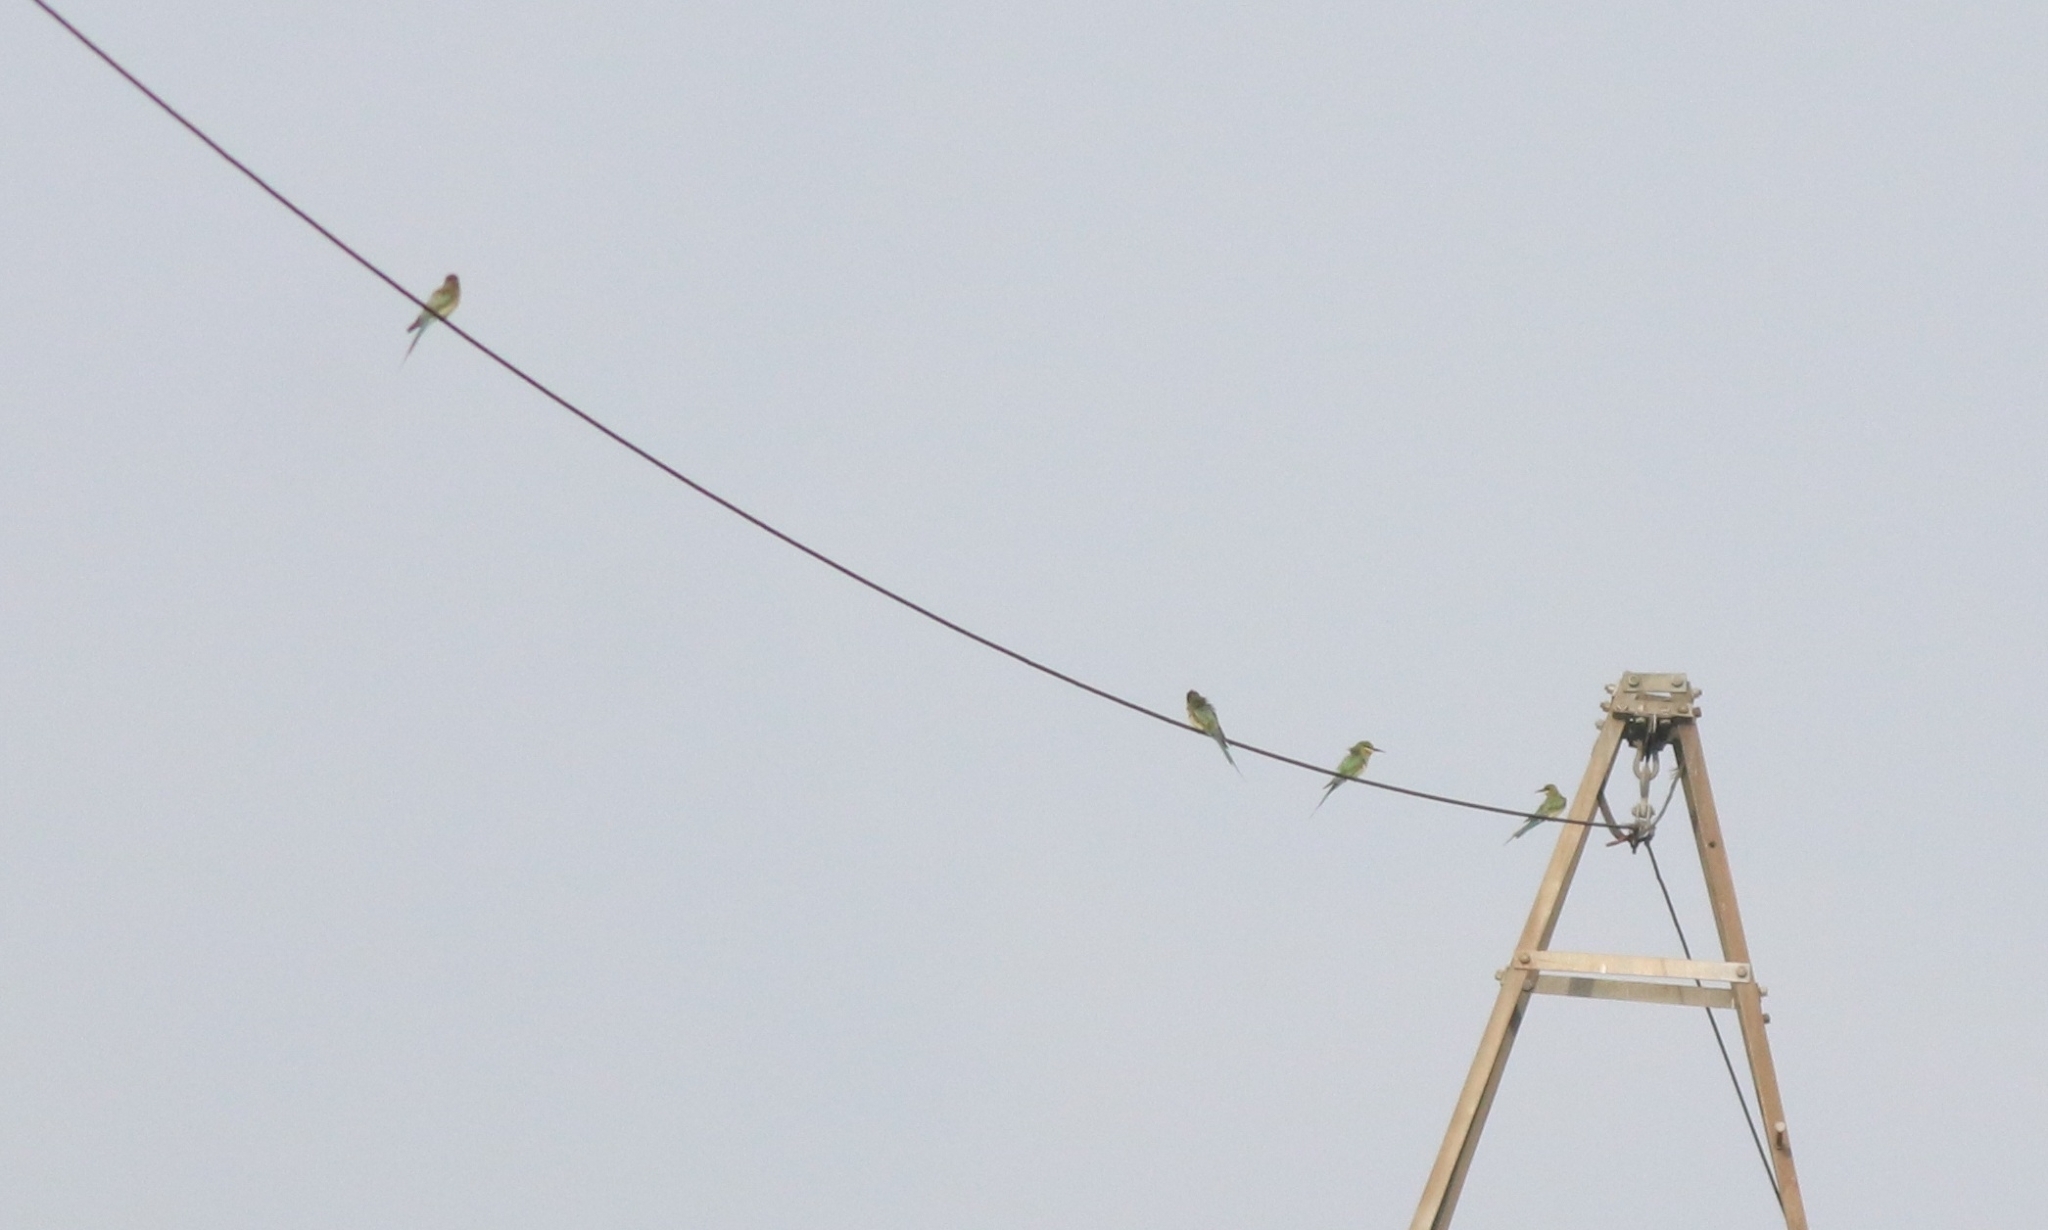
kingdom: Animalia
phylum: Chordata
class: Aves
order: Coraciiformes
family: Meropidae
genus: Merops
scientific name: Merops philippinus
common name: Blue-tailed bee-eater
